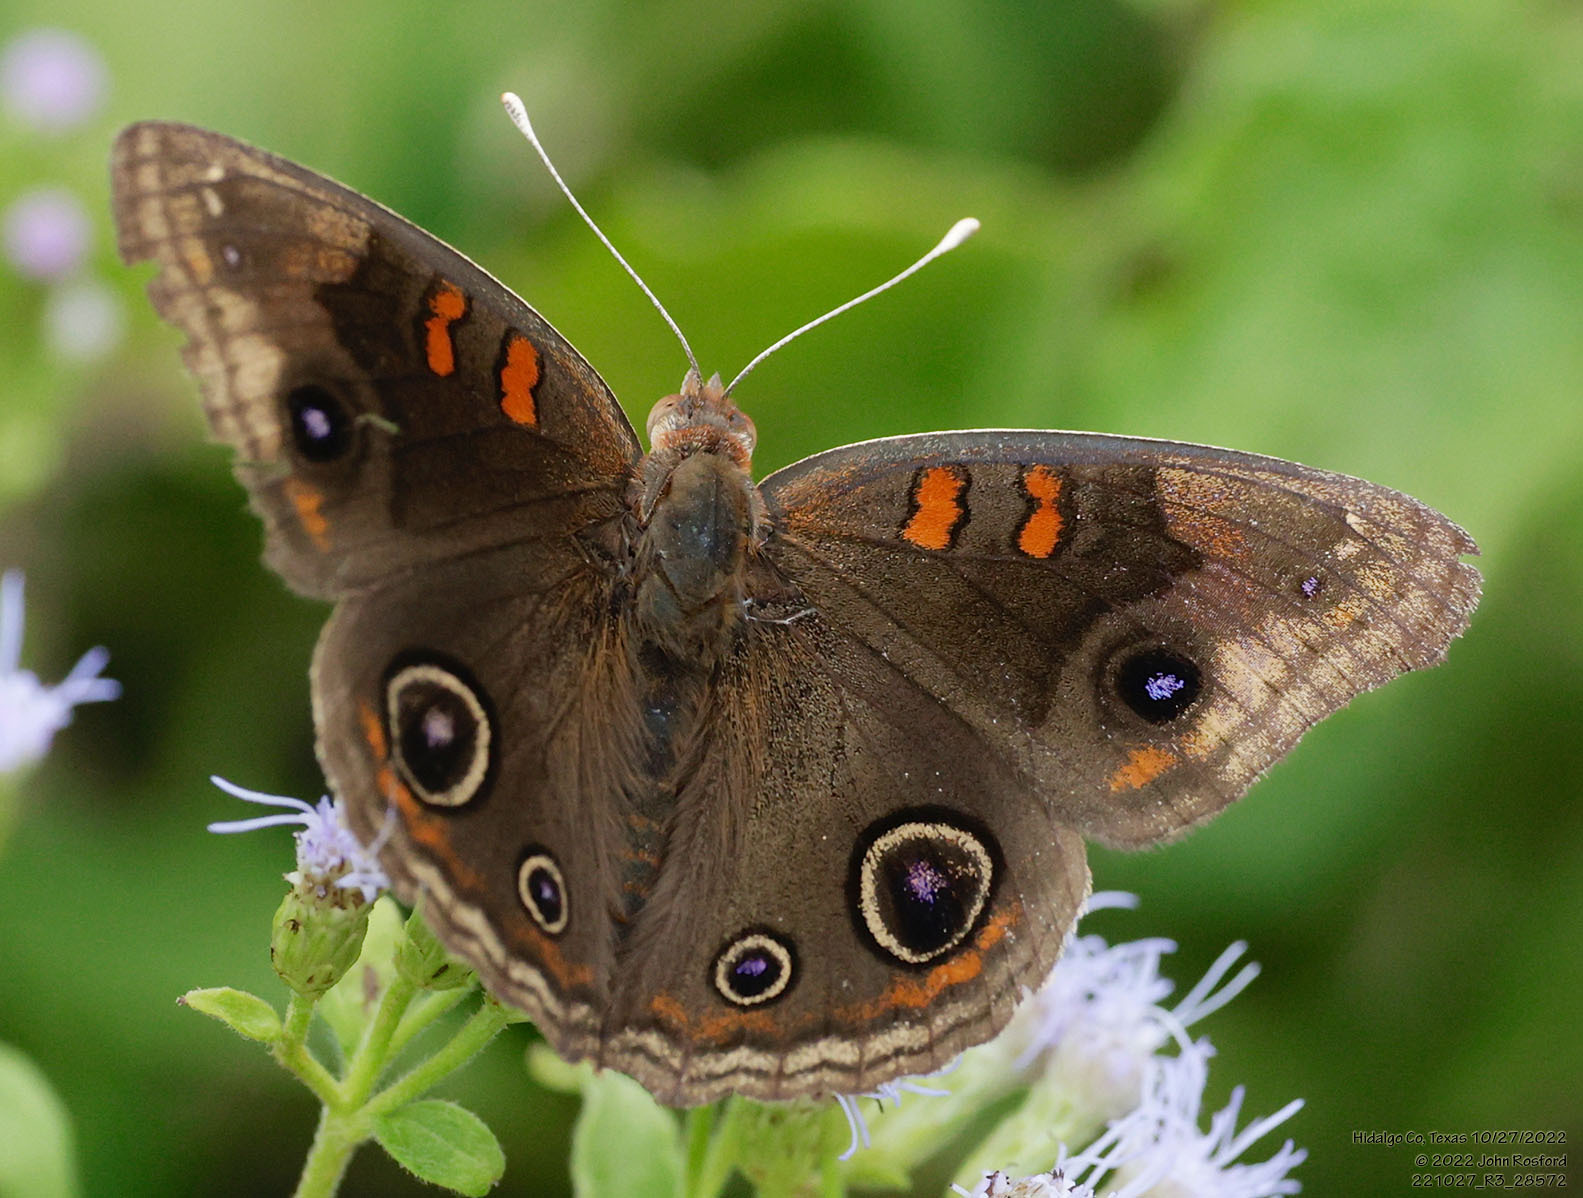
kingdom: Animalia
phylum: Arthropoda
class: Insecta
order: Lepidoptera
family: Nymphalidae
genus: Junonia
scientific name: Junonia stemosa
